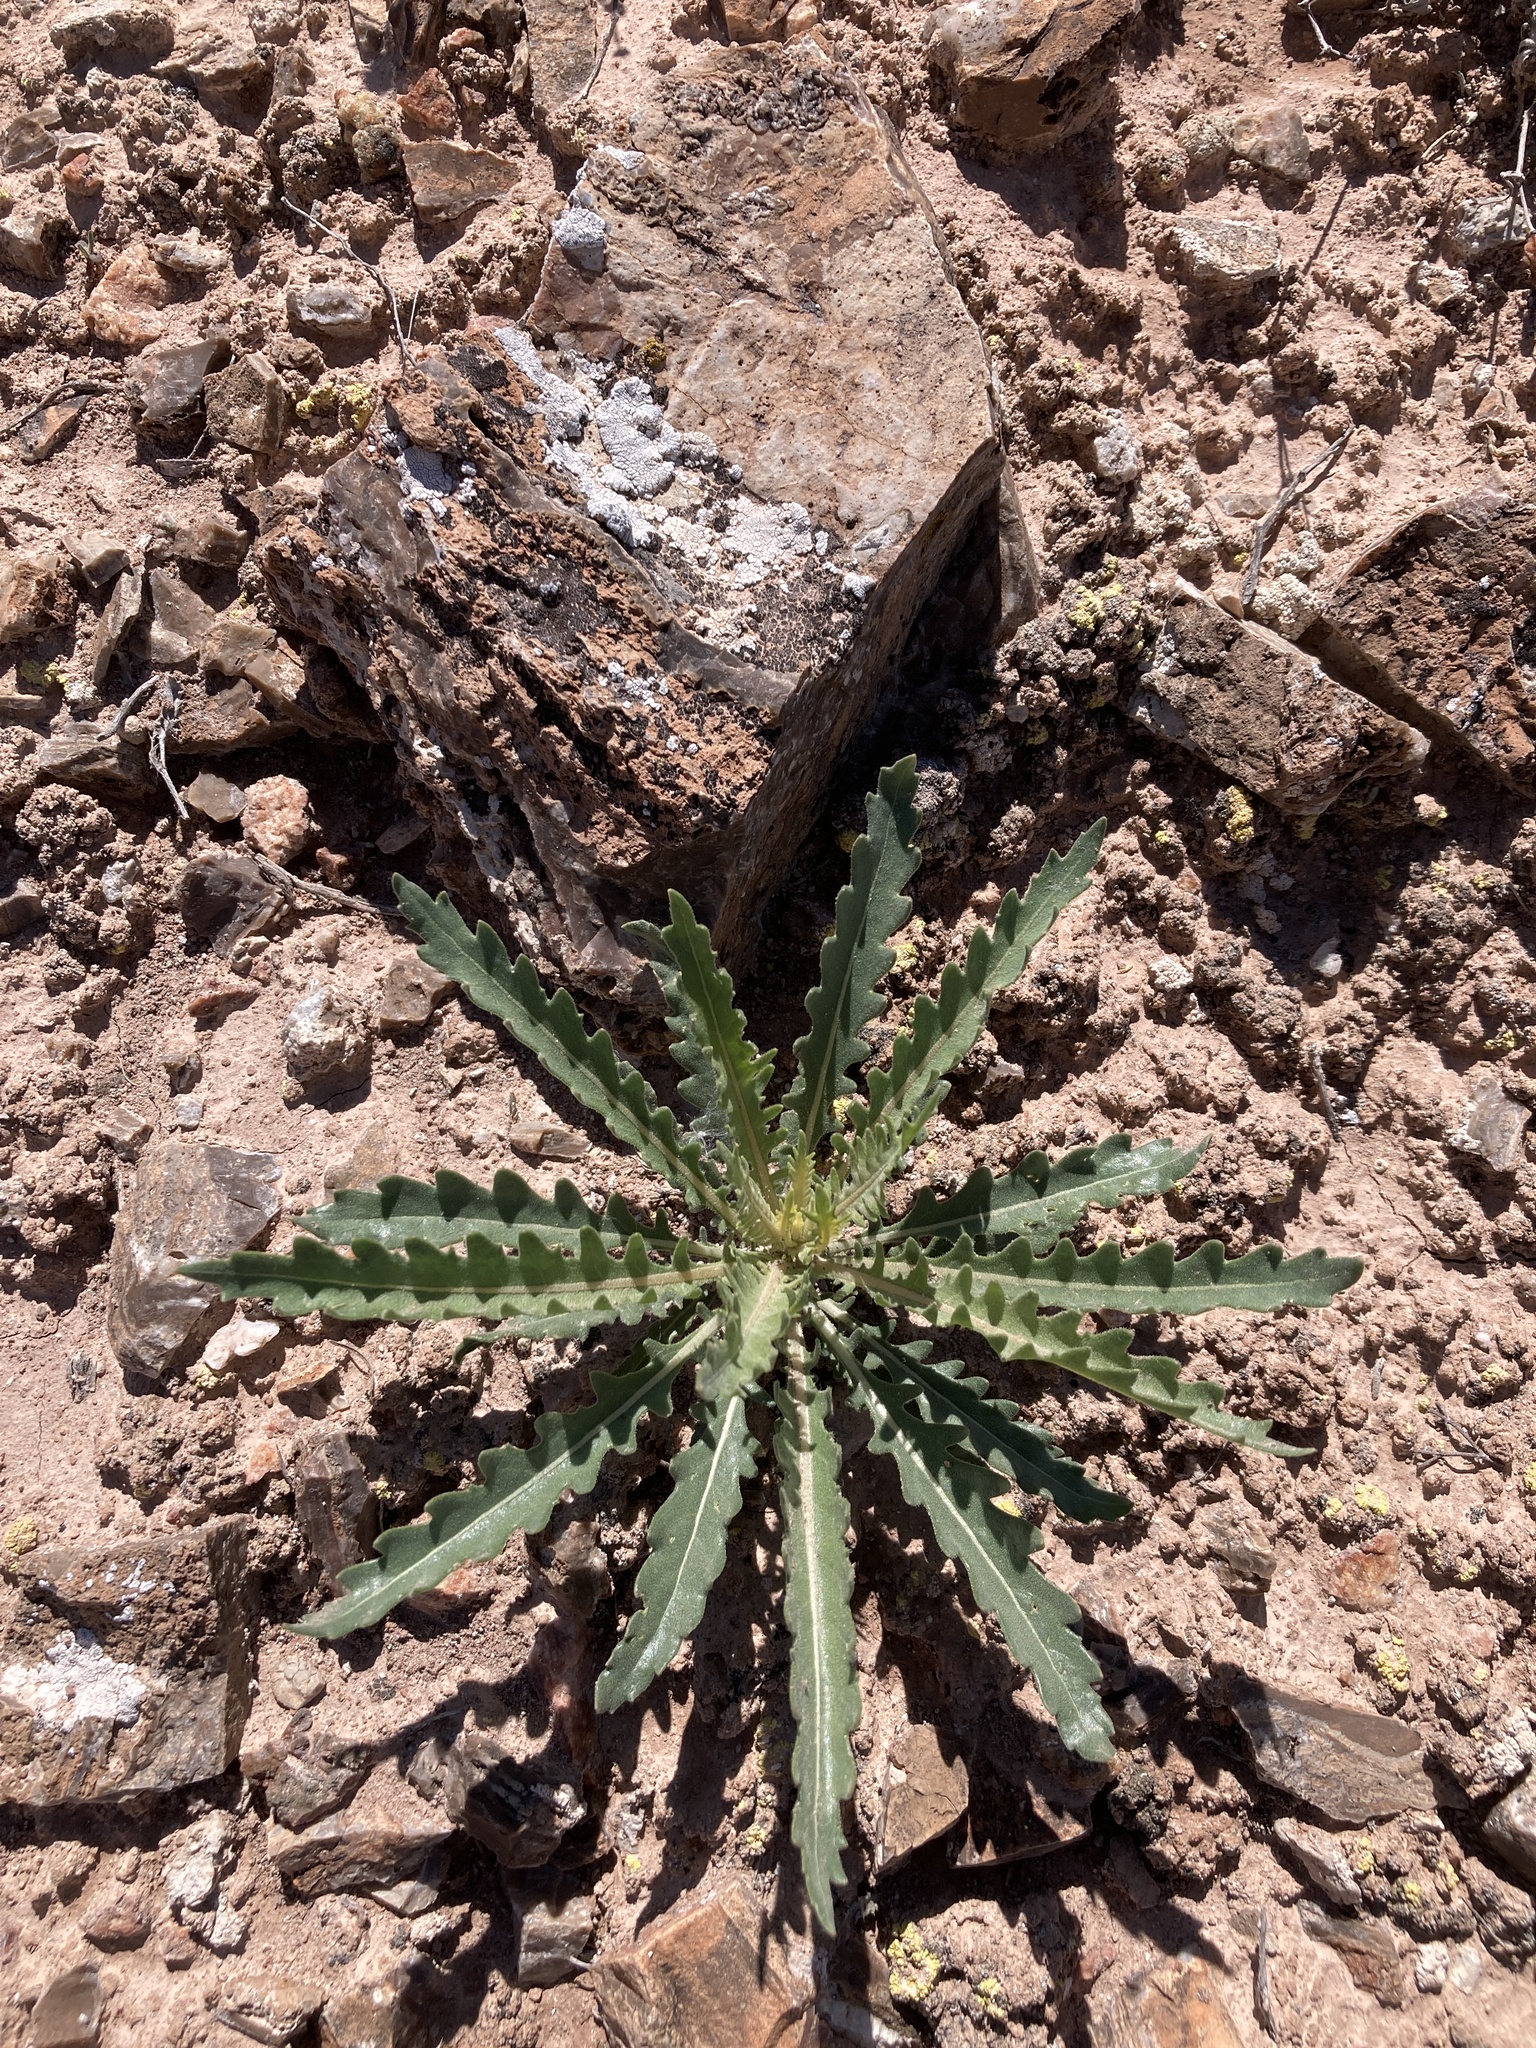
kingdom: Plantae
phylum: Tracheophyta
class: Magnoliopsida
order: Cornales
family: Loasaceae
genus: Mentzelia
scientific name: Mentzelia decapetala
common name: Gumbo-lily
